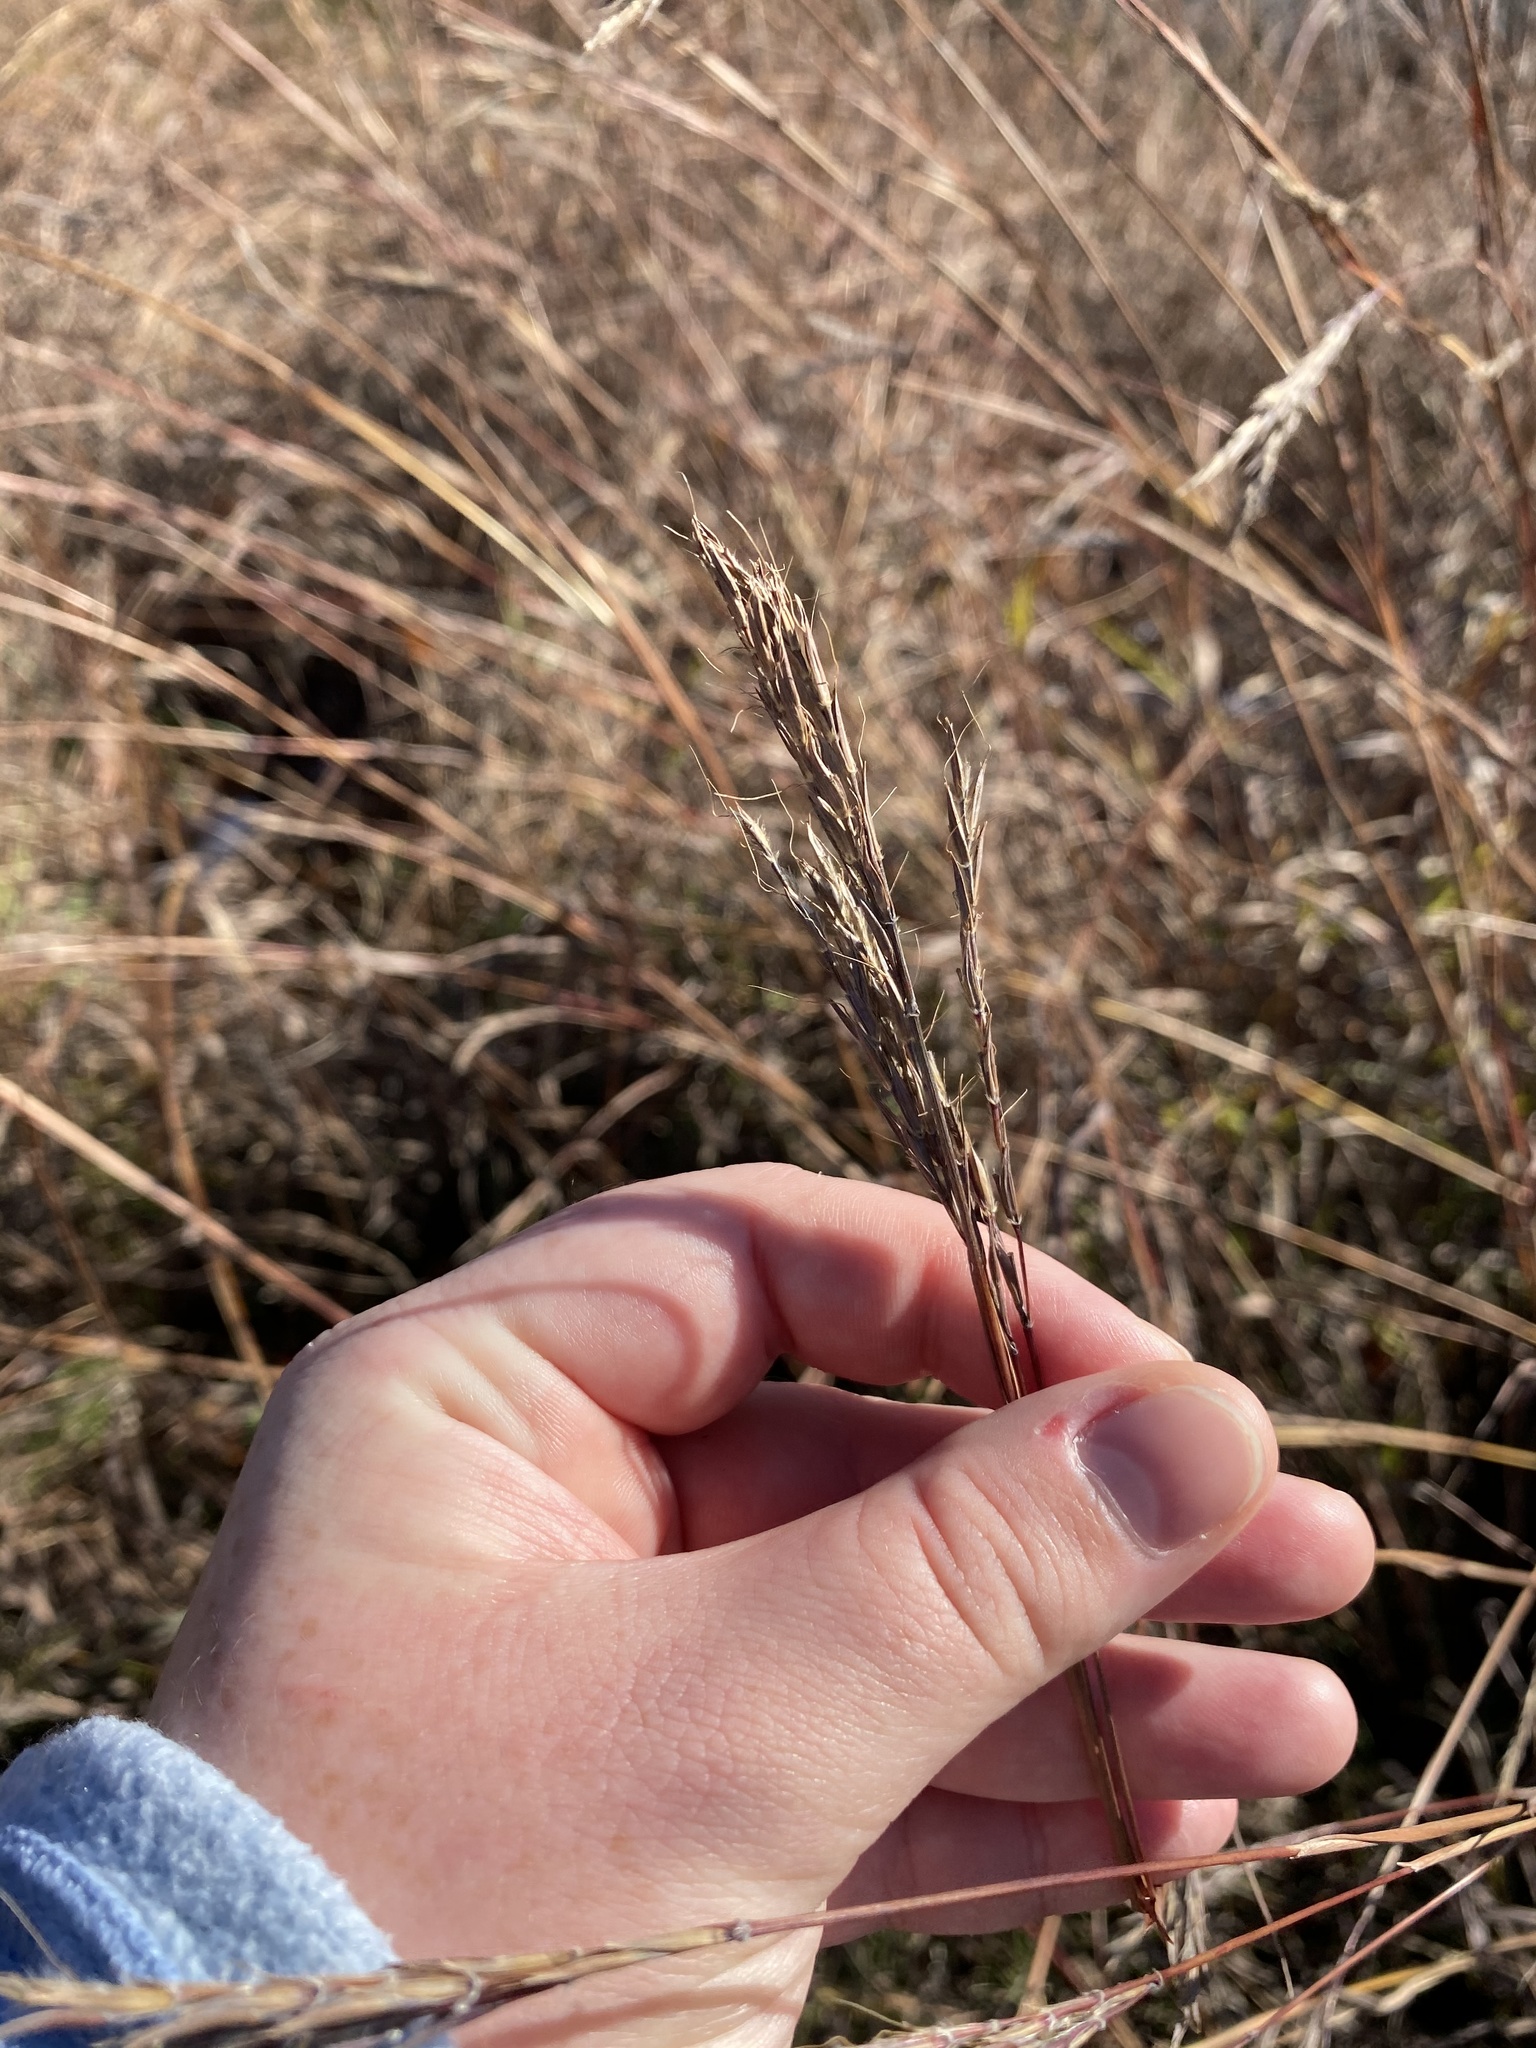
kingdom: Plantae
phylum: Tracheophyta
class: Liliopsida
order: Poales
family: Poaceae
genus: Andropogon
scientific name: Andropogon gerardi
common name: Big bluestem
